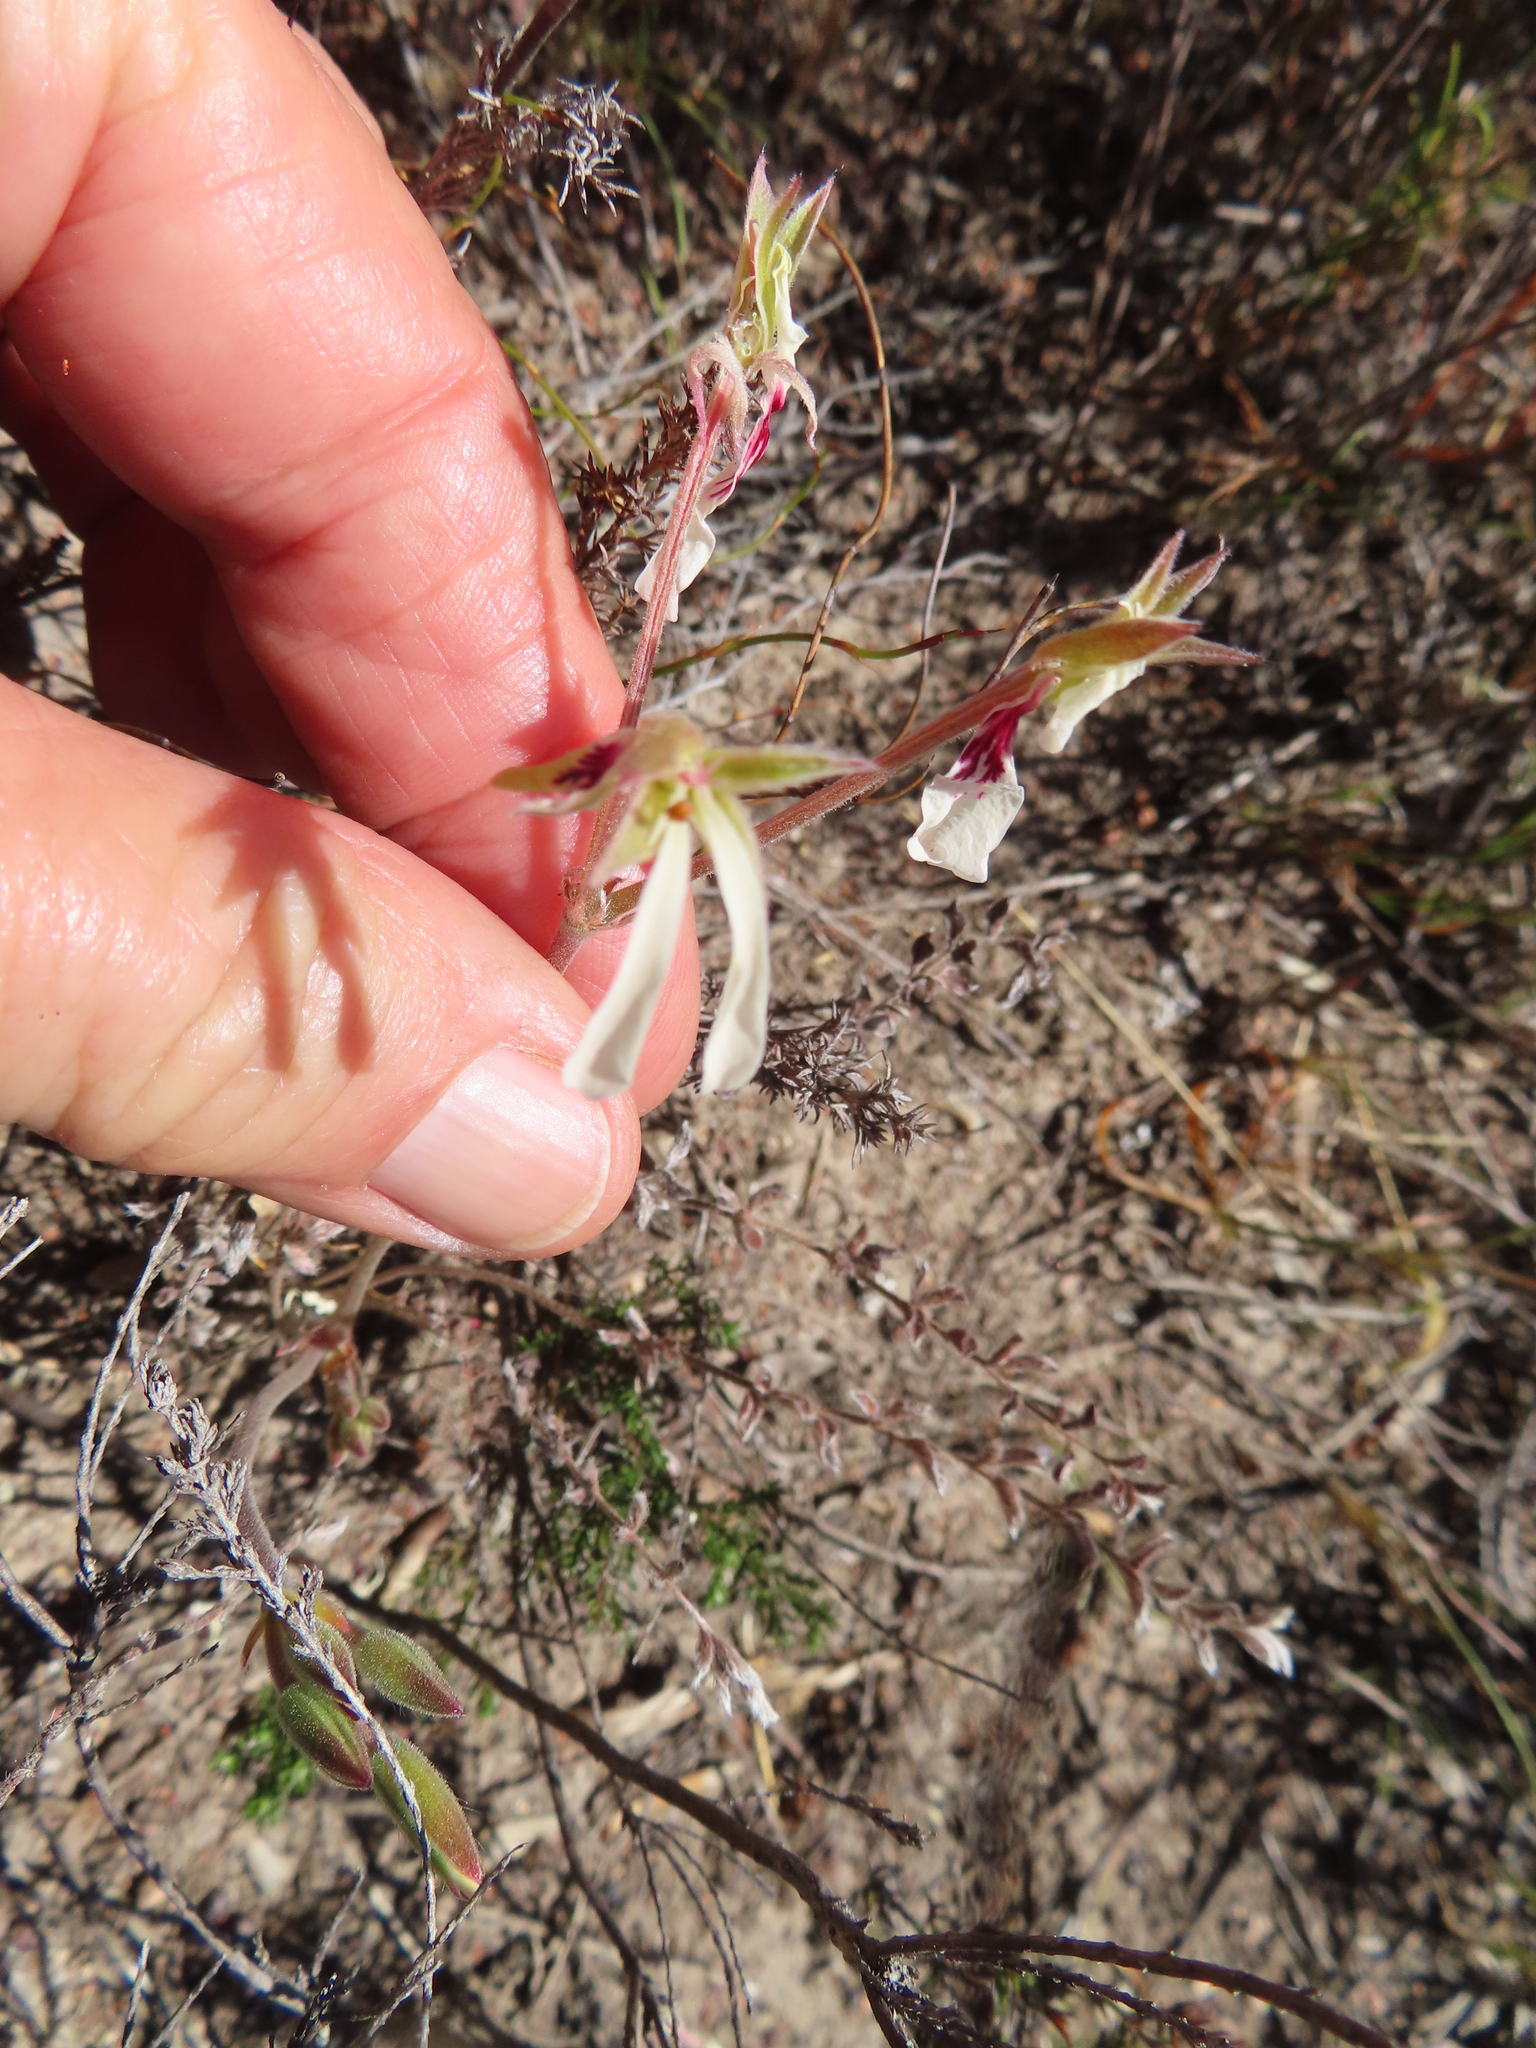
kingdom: Plantae
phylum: Tracheophyta
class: Magnoliopsida
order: Geraniales
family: Geraniaceae
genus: Pelargonium
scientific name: Pelargonium pinnatum
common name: Pinnated pelargonium
